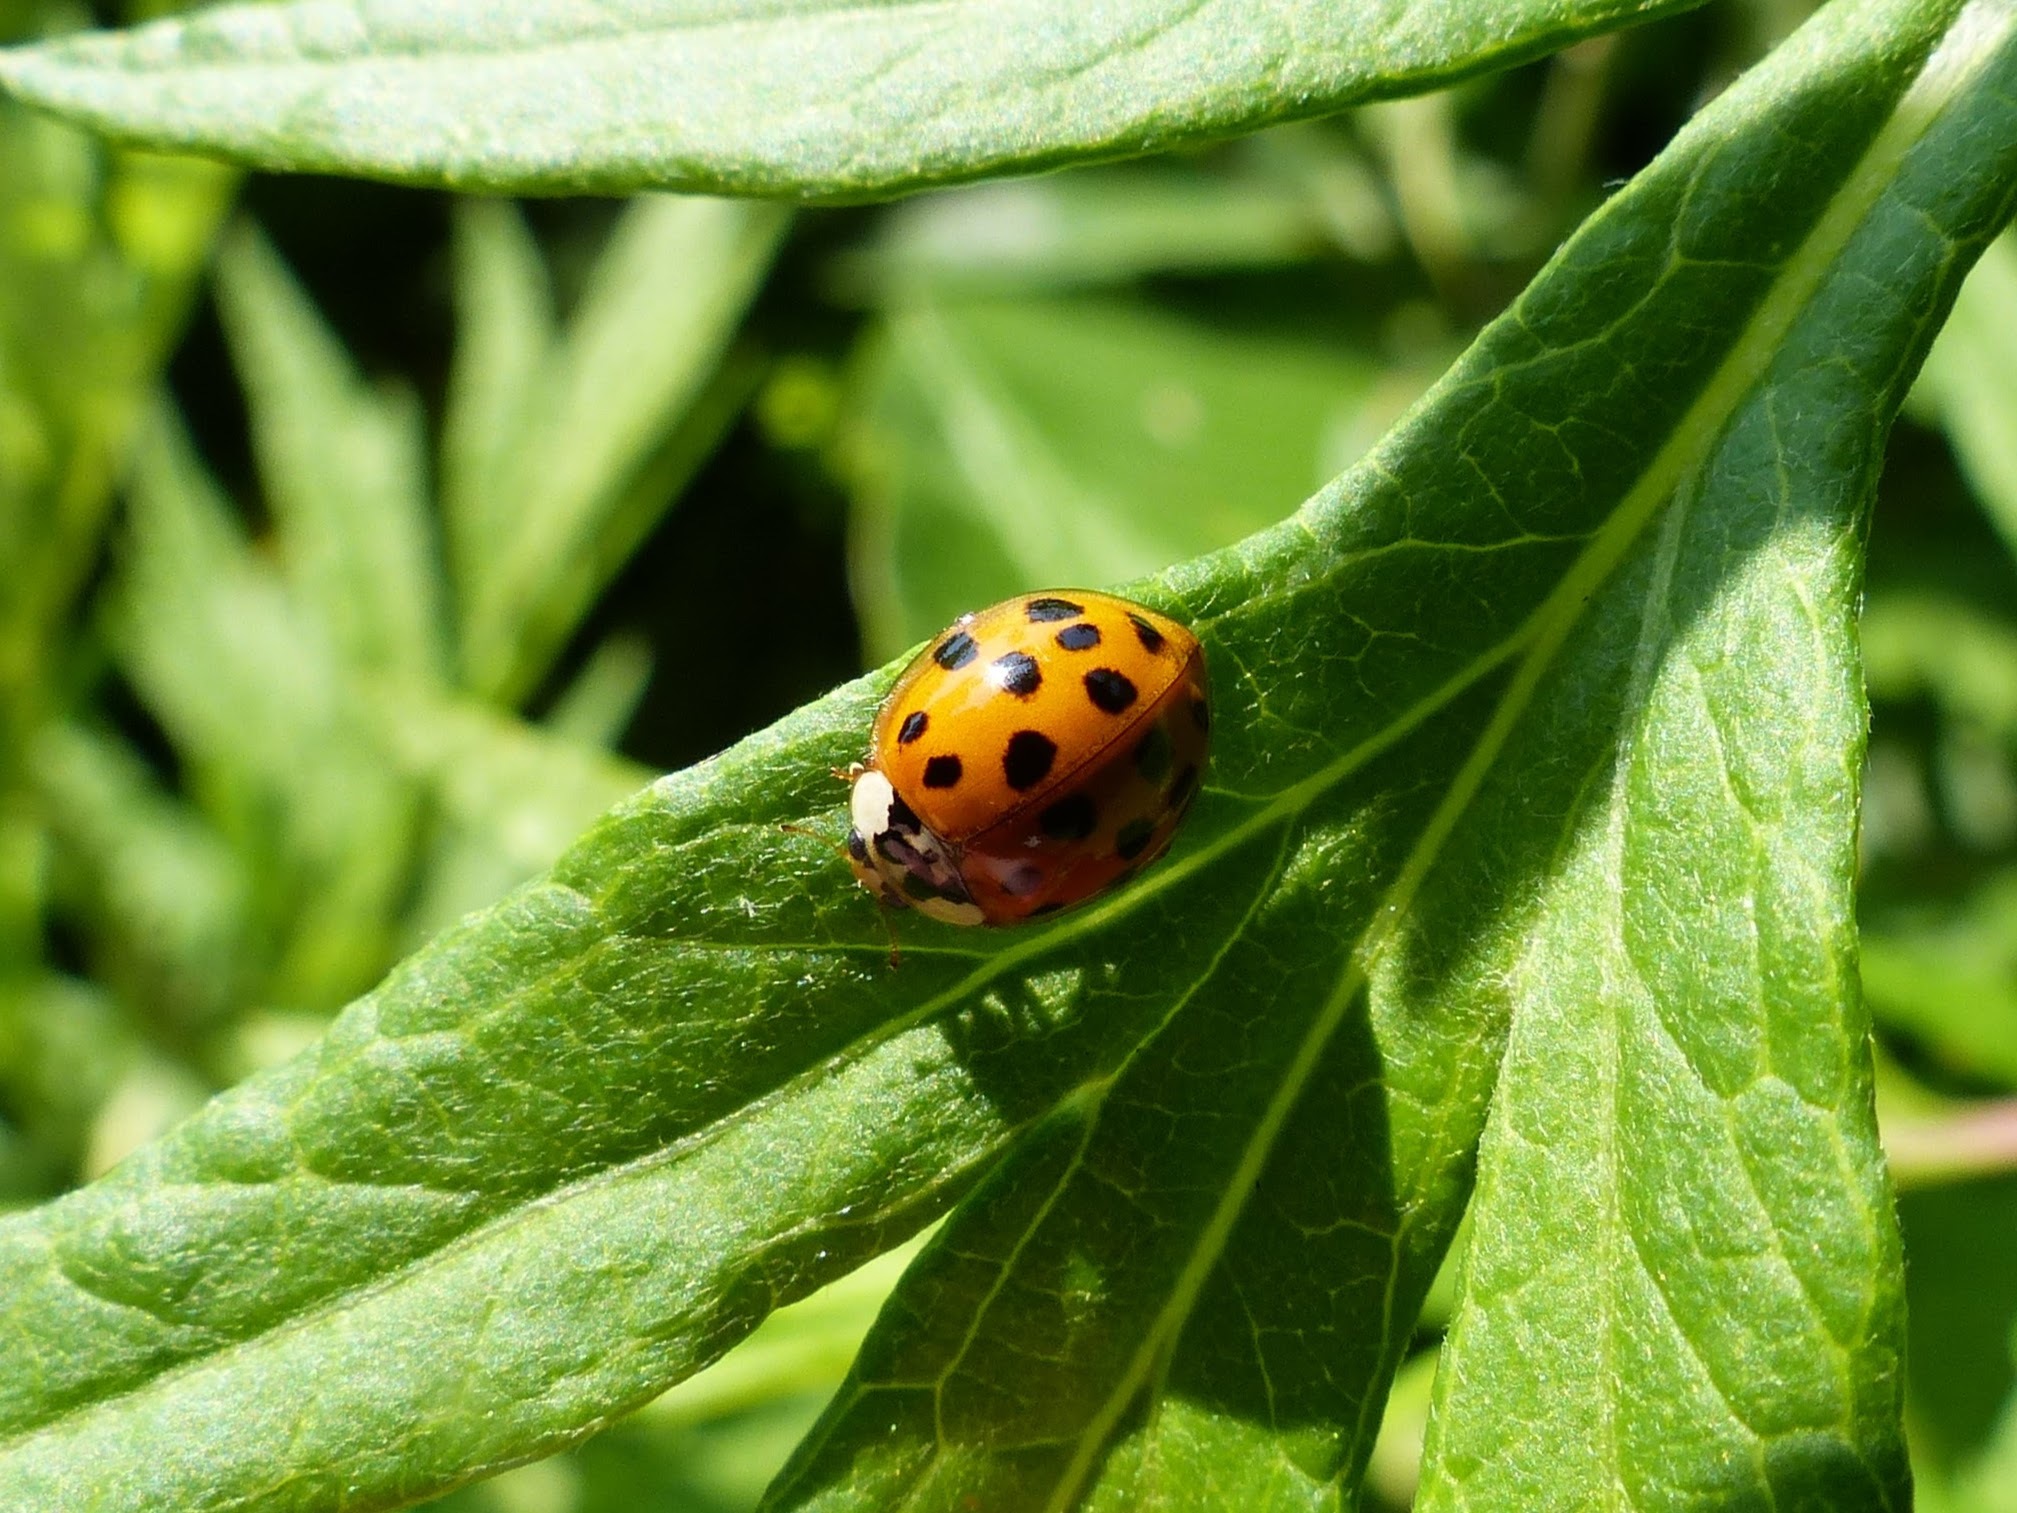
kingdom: Animalia
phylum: Arthropoda
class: Insecta
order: Coleoptera
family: Coccinellidae
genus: Harmonia
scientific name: Harmonia axyridis
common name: Harlequin ladybird
